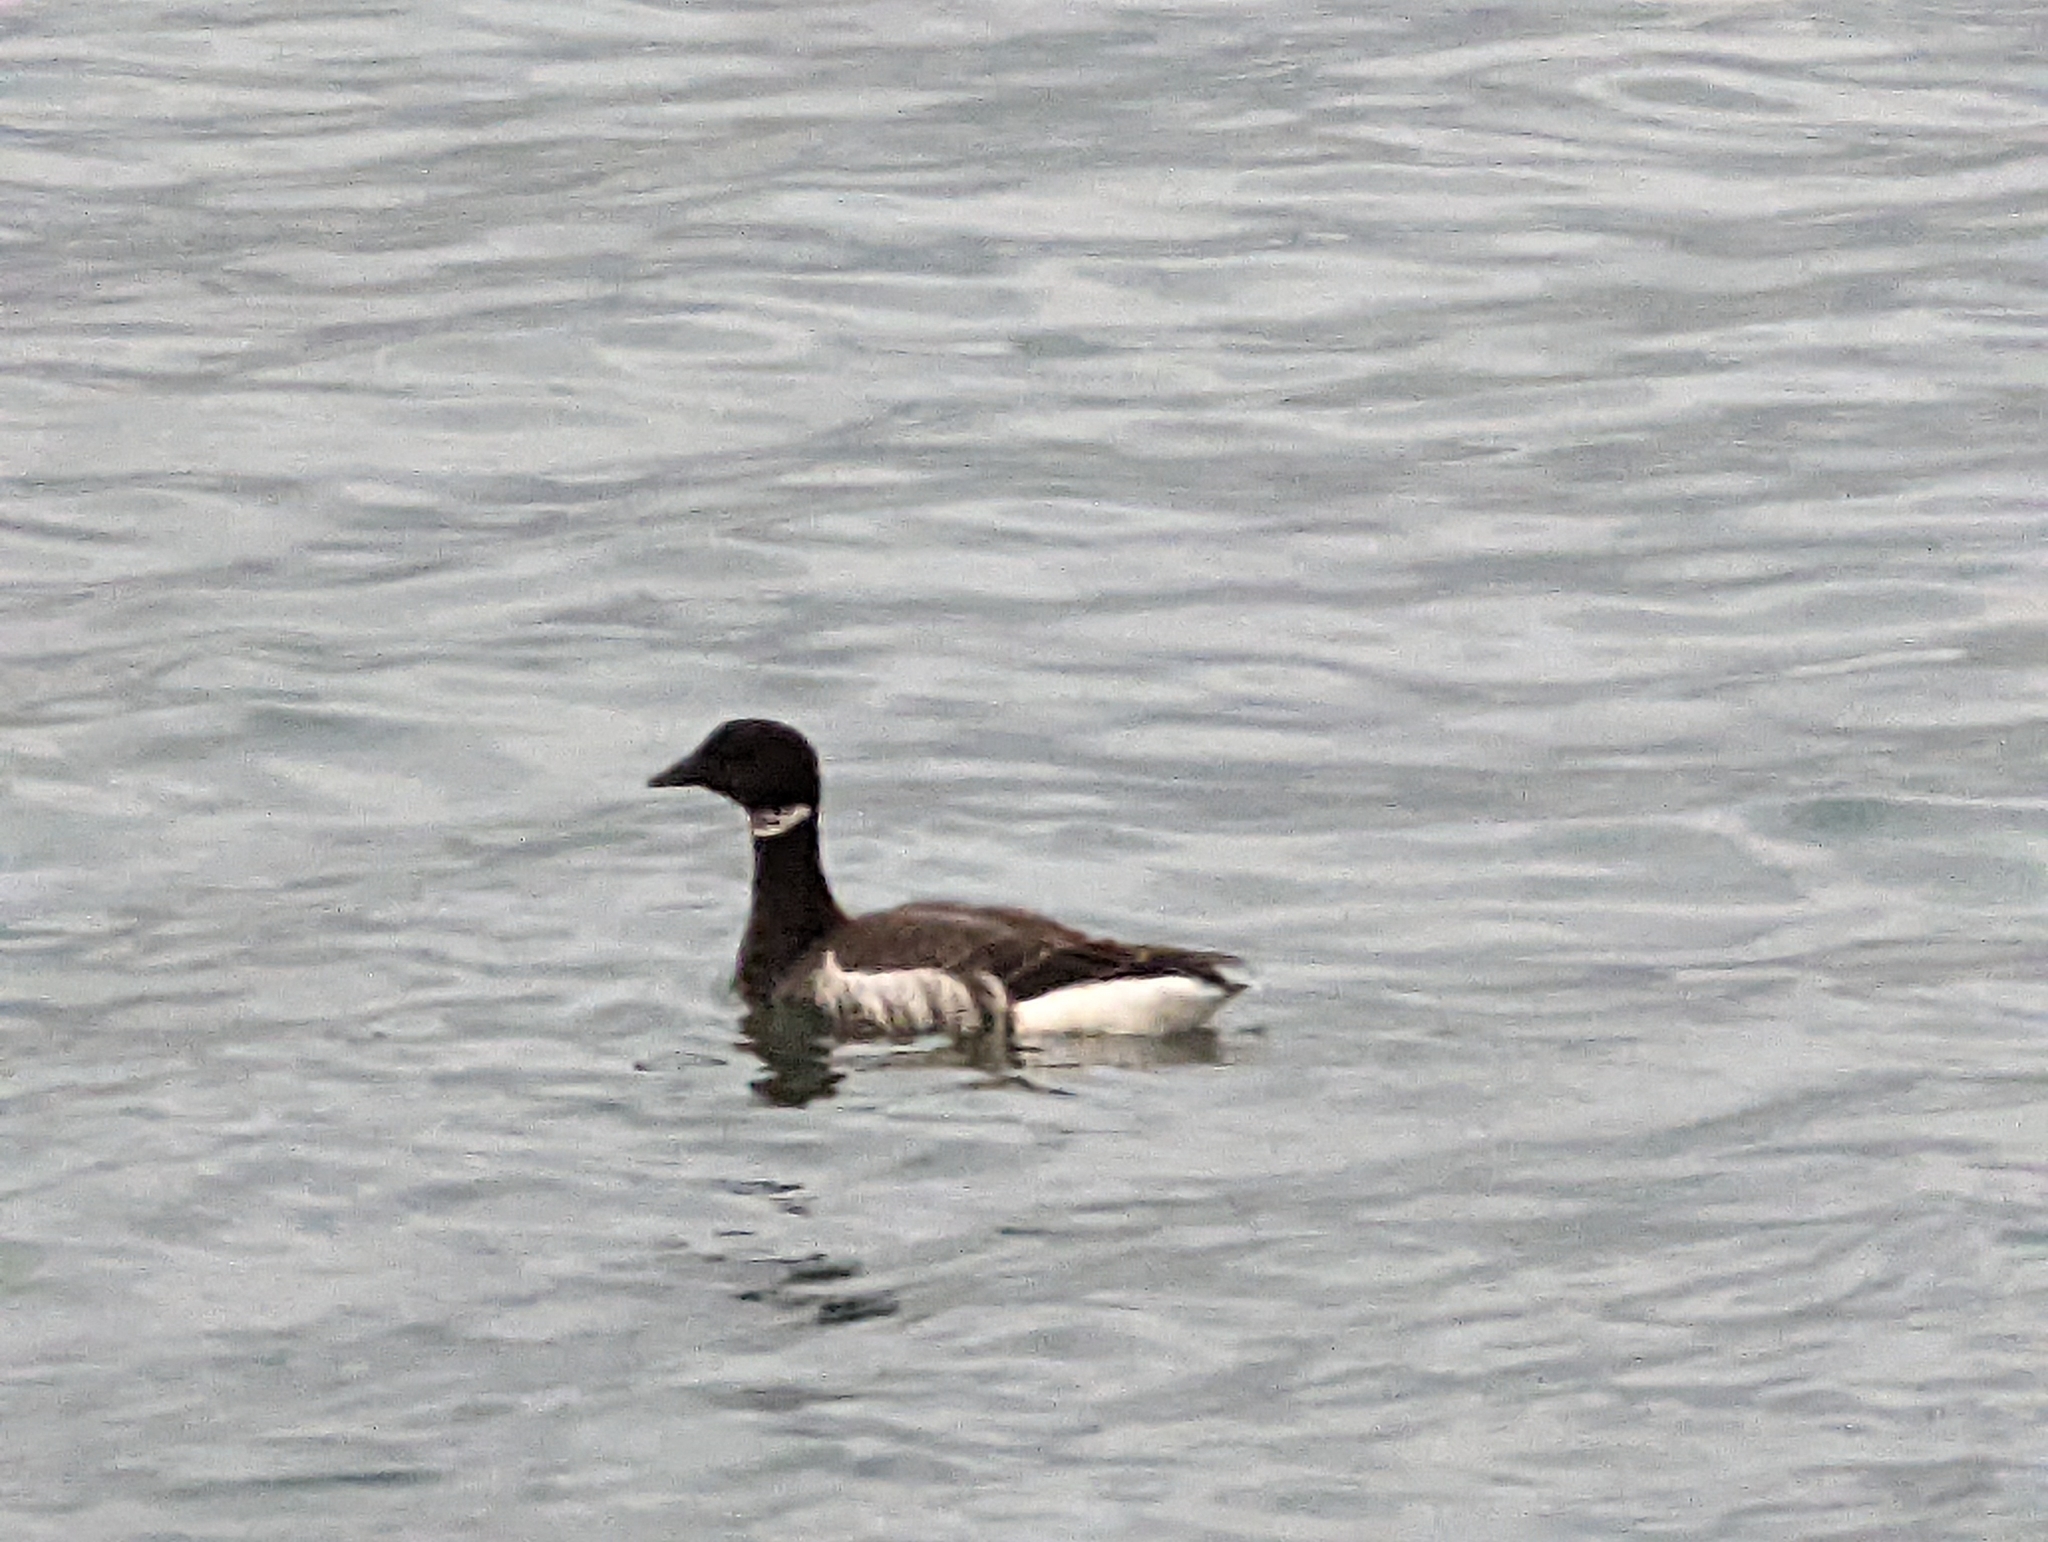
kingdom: Animalia
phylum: Chordata
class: Aves
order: Anseriformes
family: Anatidae
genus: Branta
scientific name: Branta bernicla
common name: Brant goose
